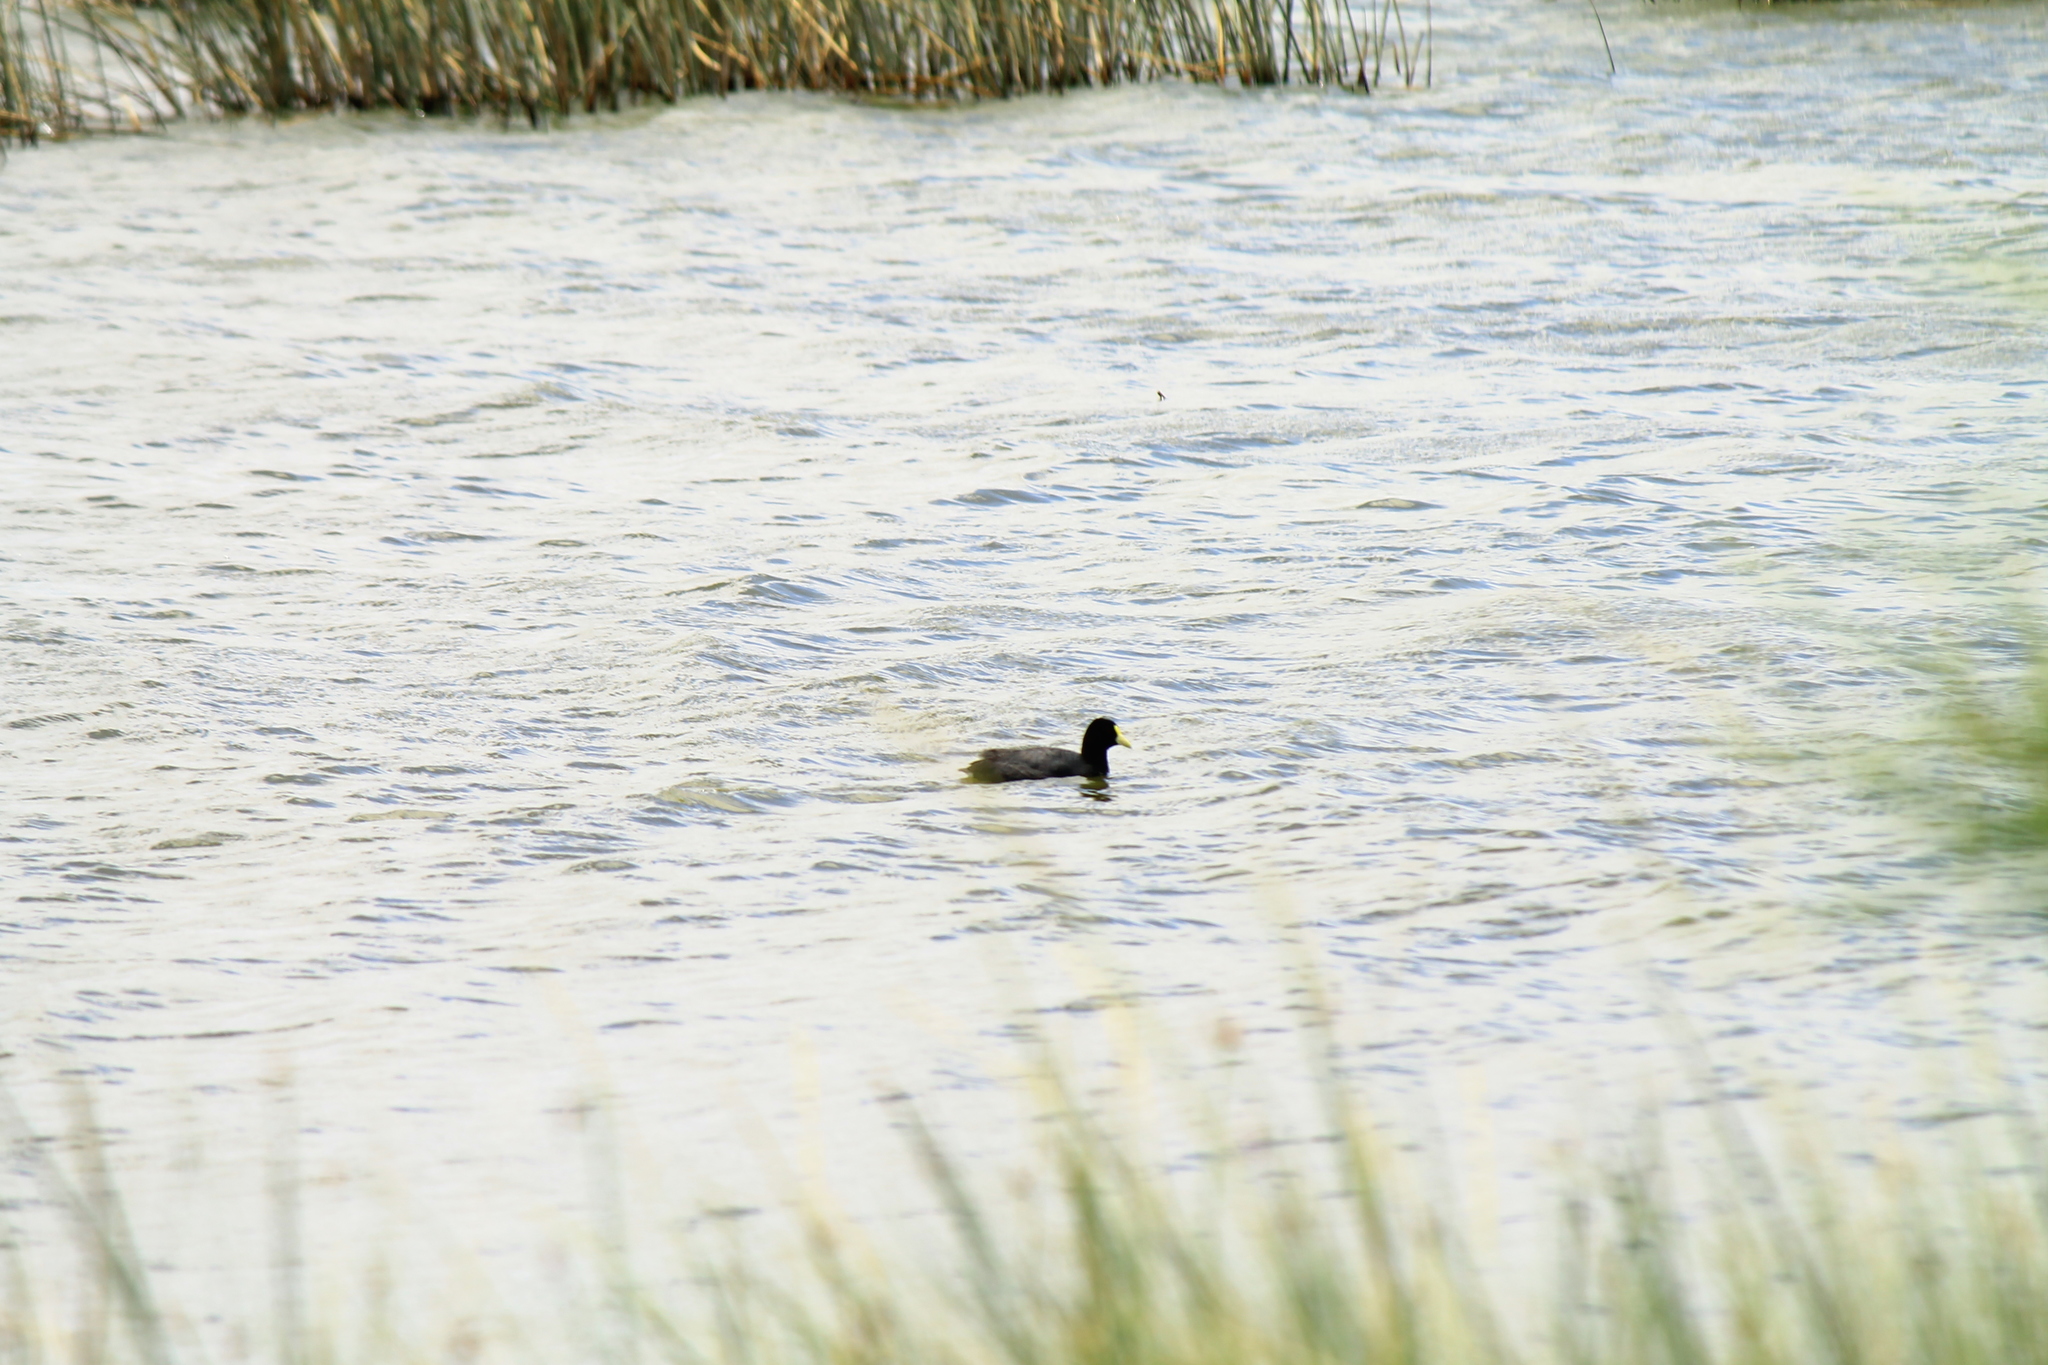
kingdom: Animalia
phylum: Chordata
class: Aves
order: Gruiformes
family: Rallidae
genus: Fulica
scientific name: Fulica leucoptera
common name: White-winged coot
